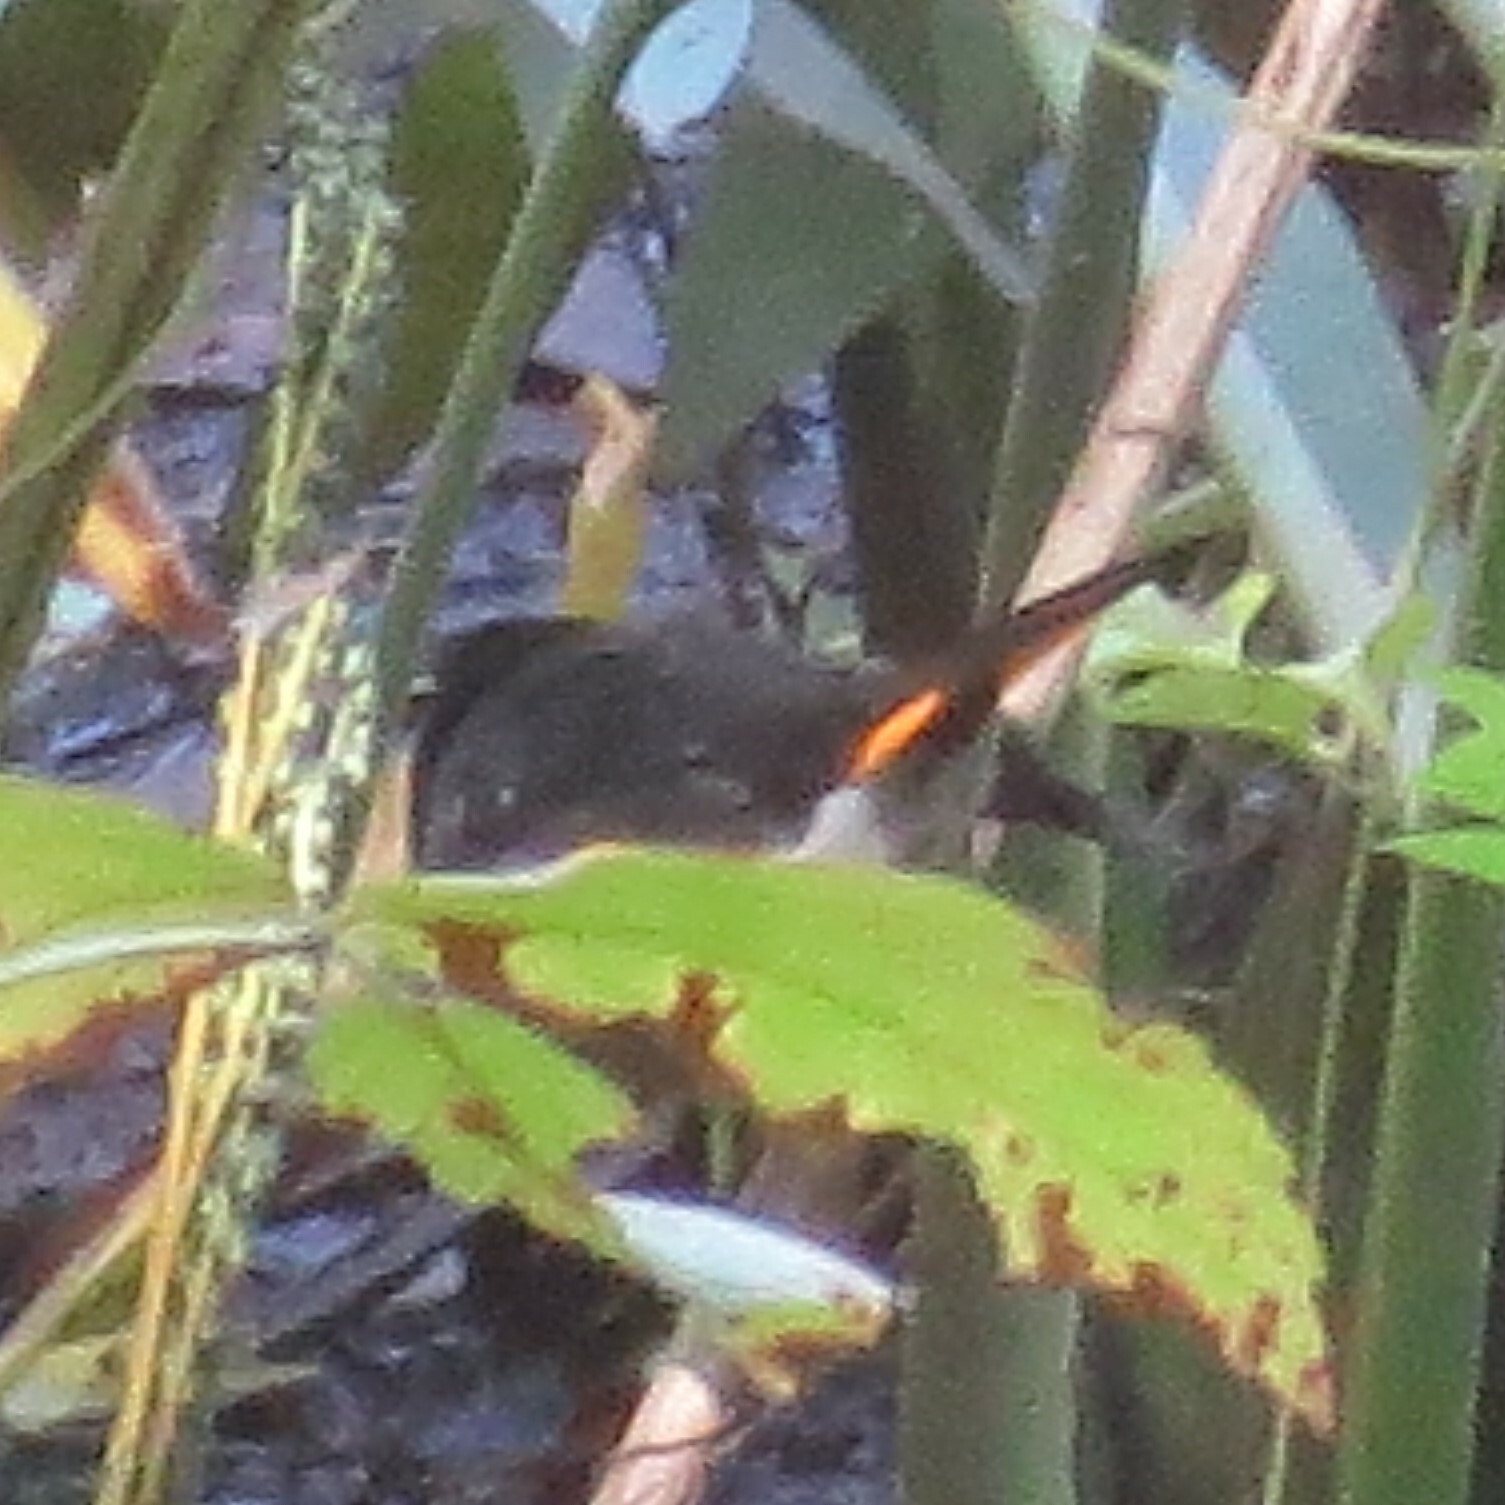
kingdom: Animalia
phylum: Chordata
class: Aves
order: Passeriformes
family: Parulidae
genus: Setophaga
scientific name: Setophaga ruticilla
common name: American redstart
